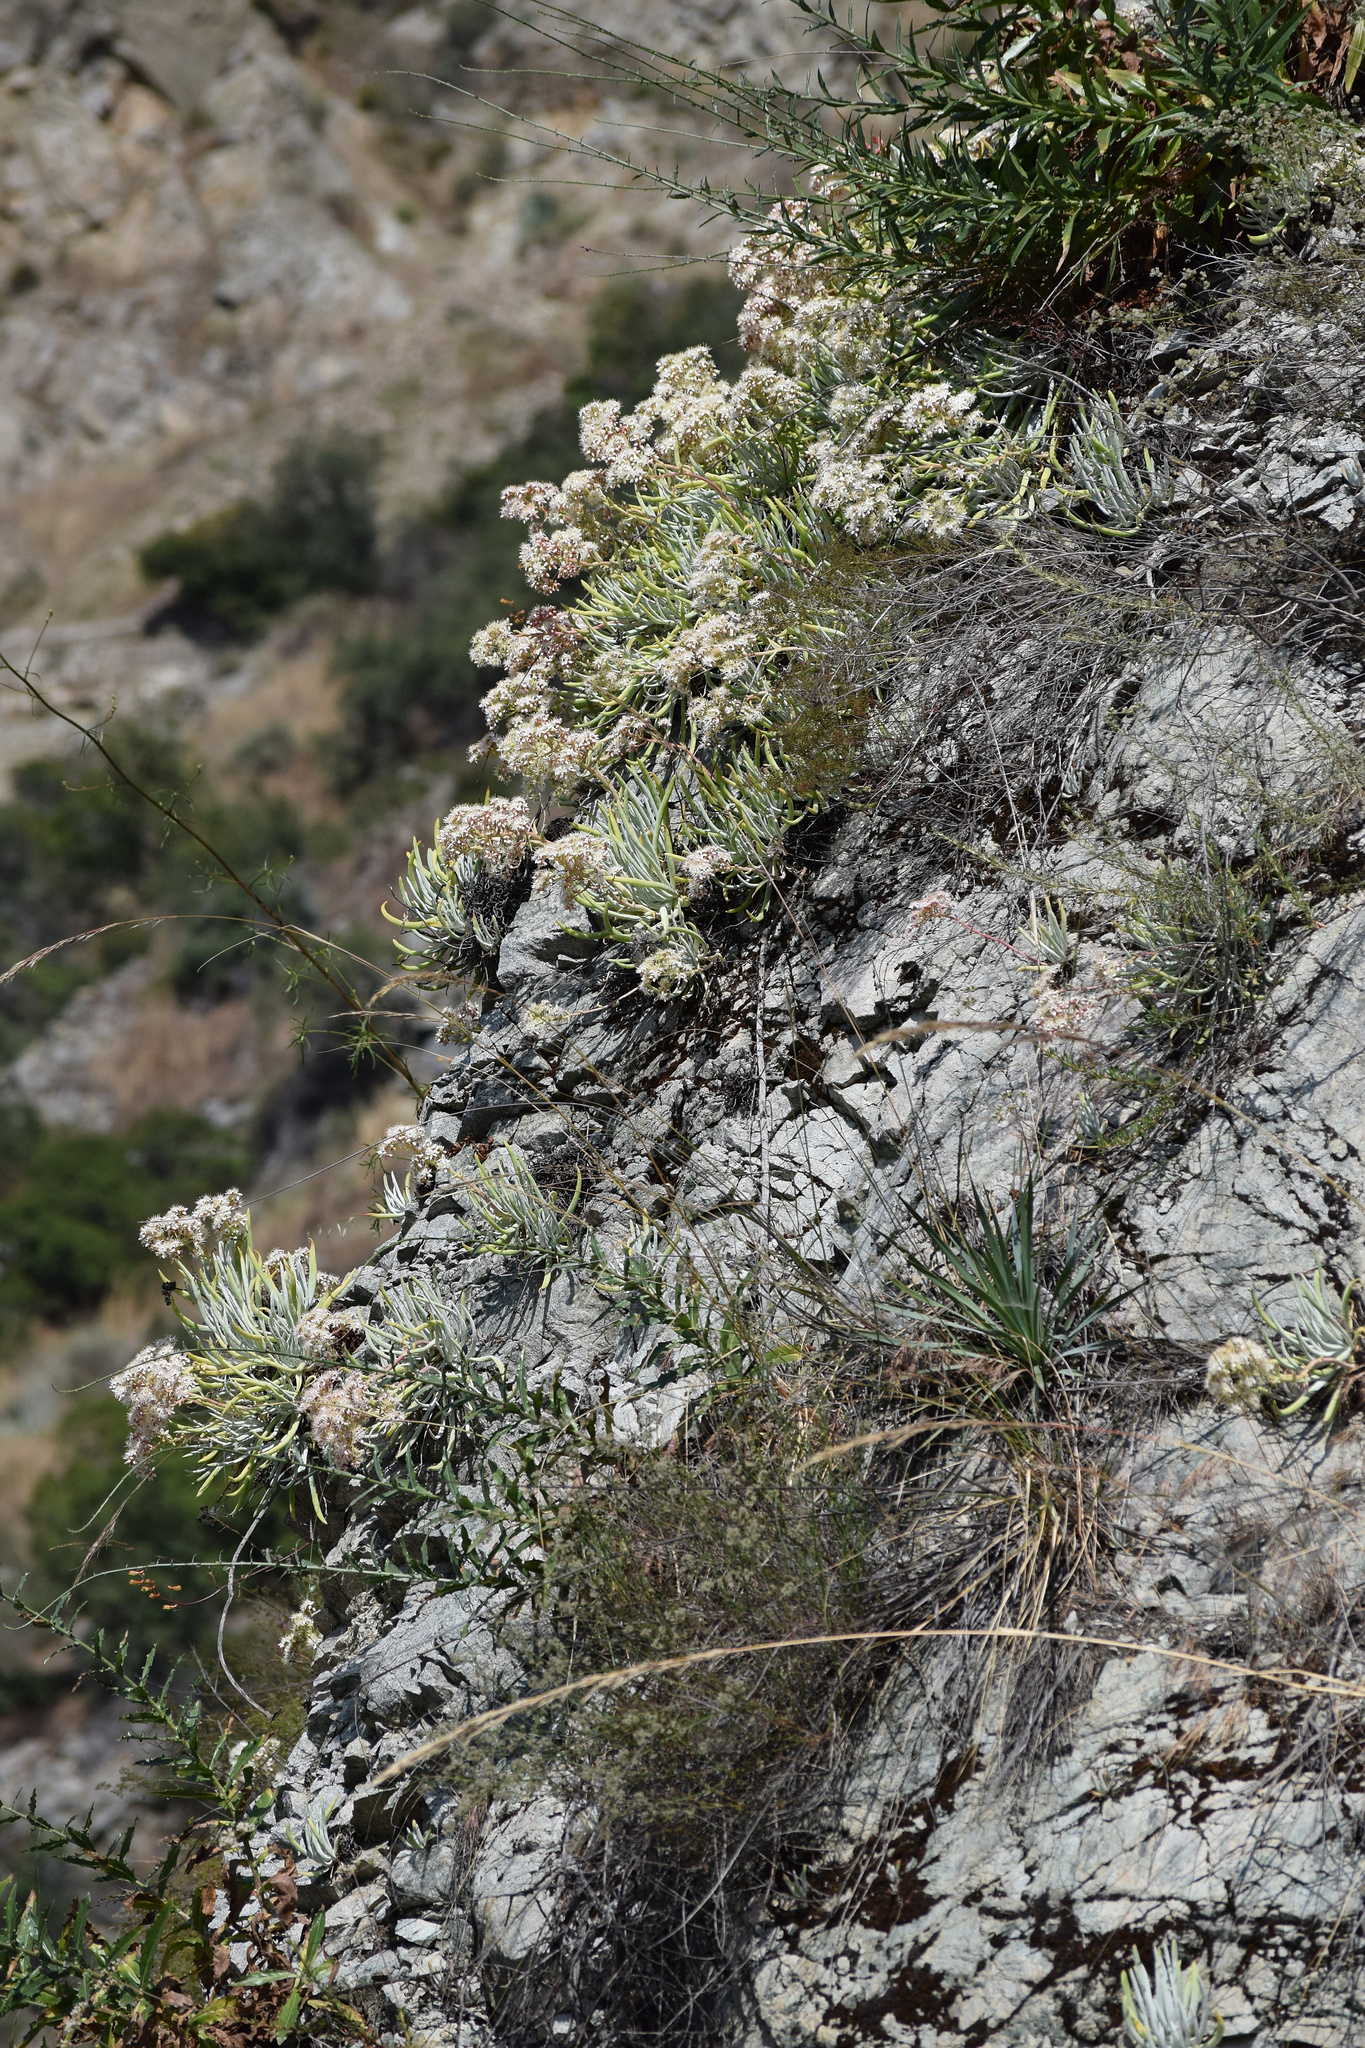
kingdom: Plantae
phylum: Tracheophyta
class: Magnoliopsida
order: Saxifragales
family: Crassulaceae
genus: Dudleya
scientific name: Dudleya densiflora
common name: San gabriel mountains dudleya
